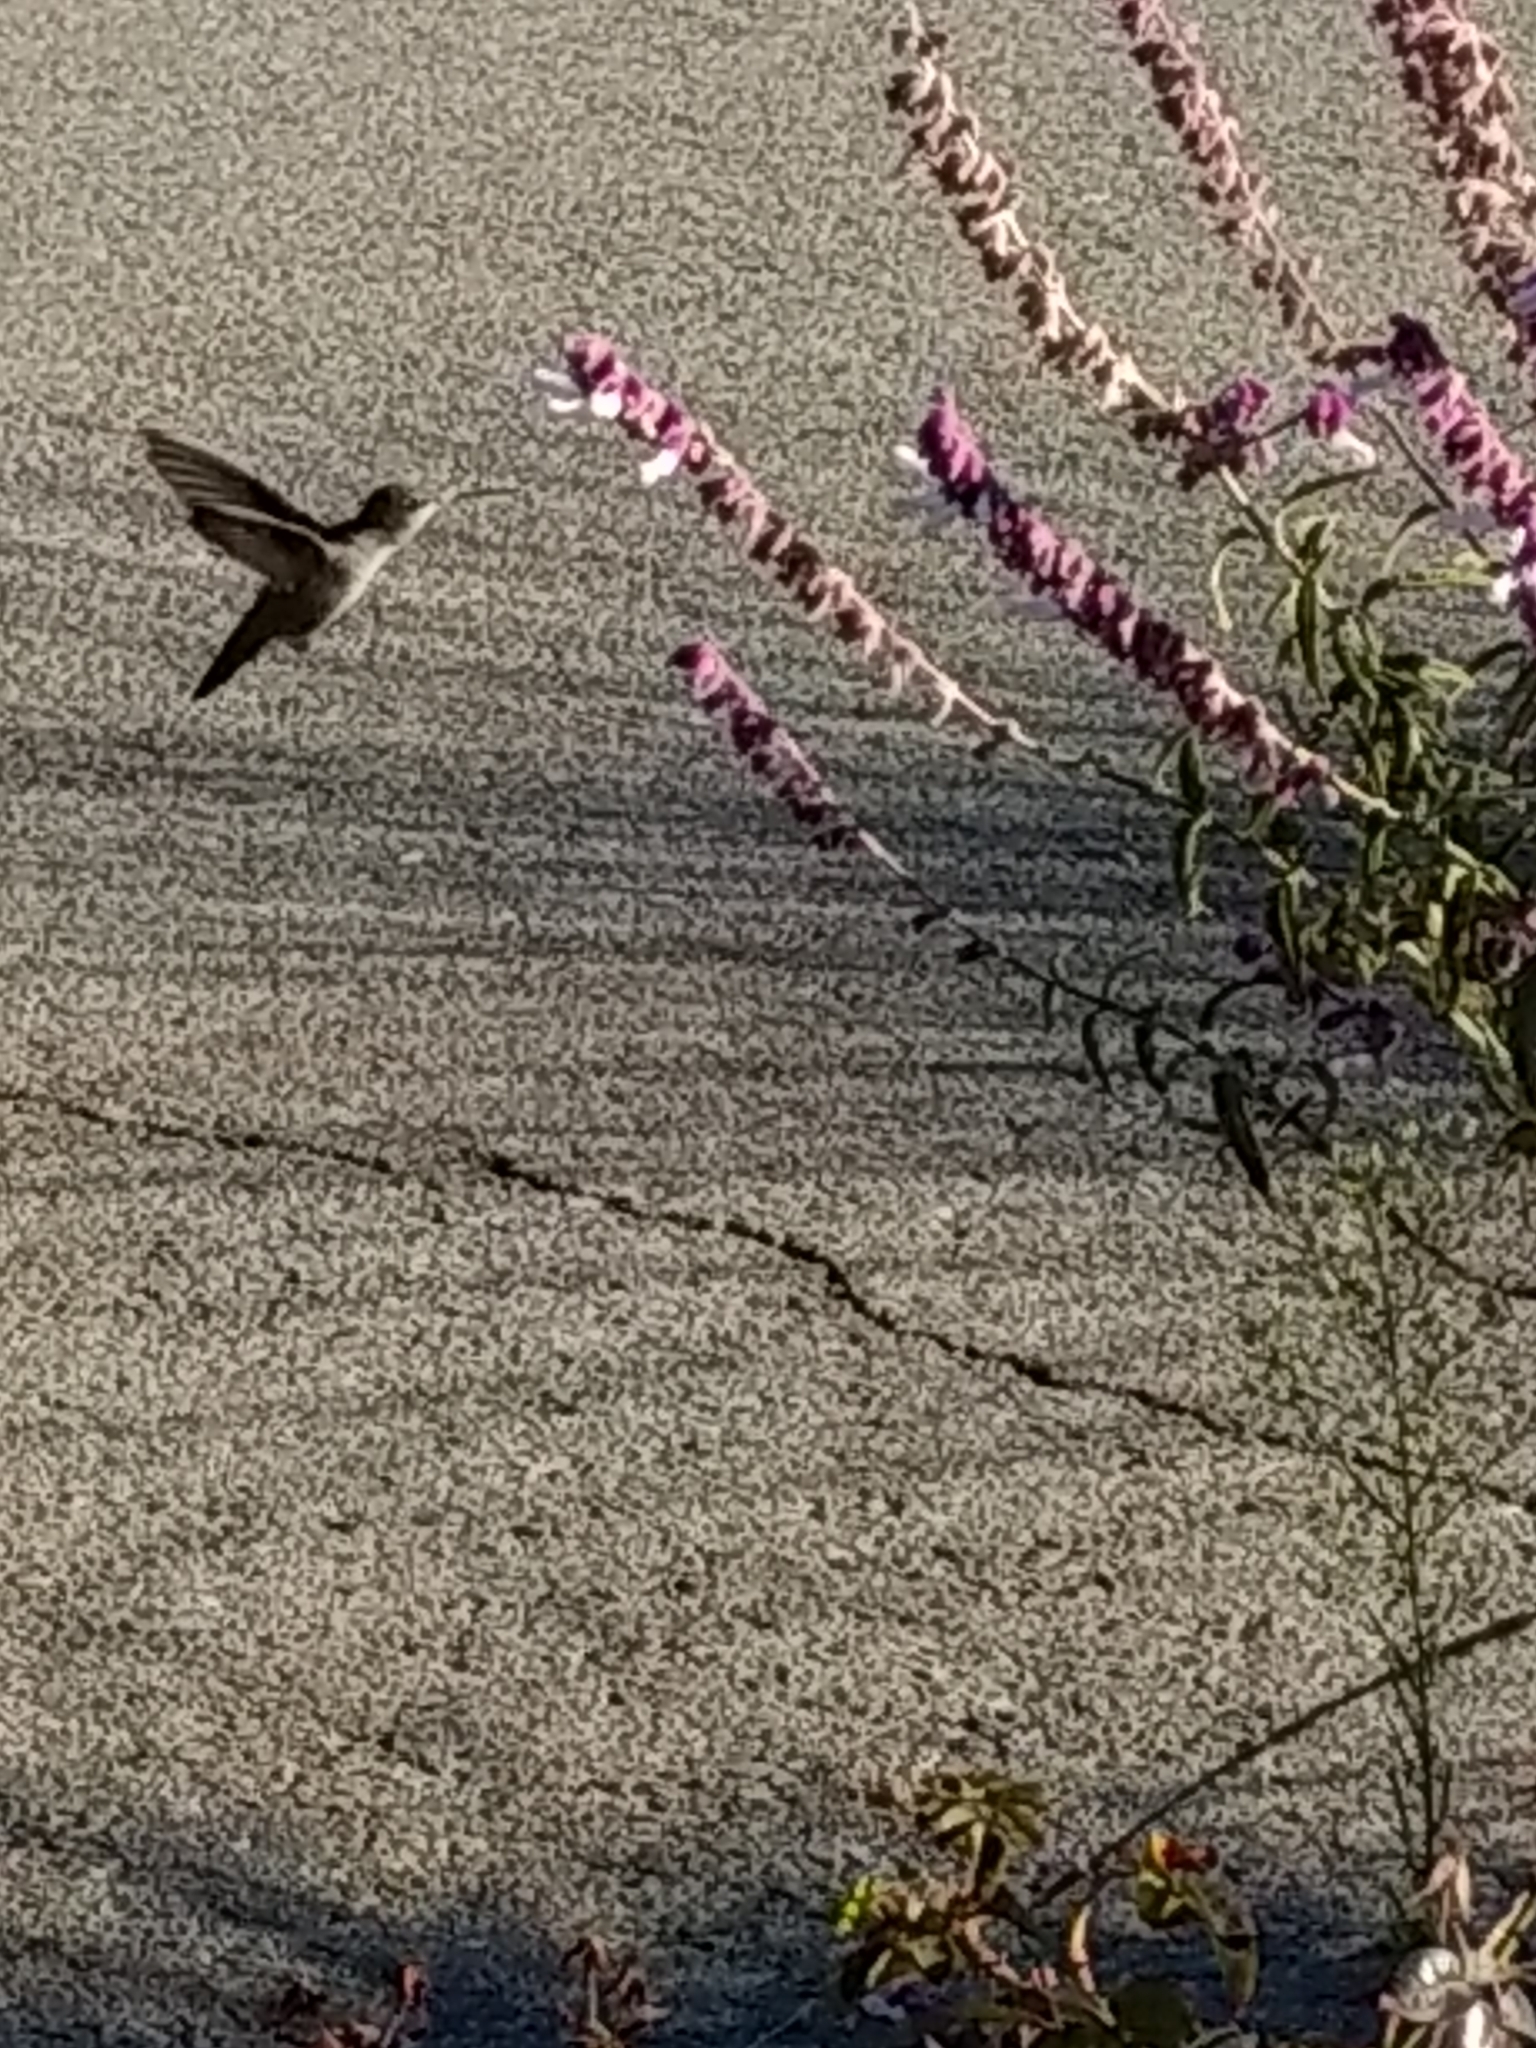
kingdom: Animalia
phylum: Chordata
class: Aves
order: Apodiformes
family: Trochilidae
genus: Calypte
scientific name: Calypte
